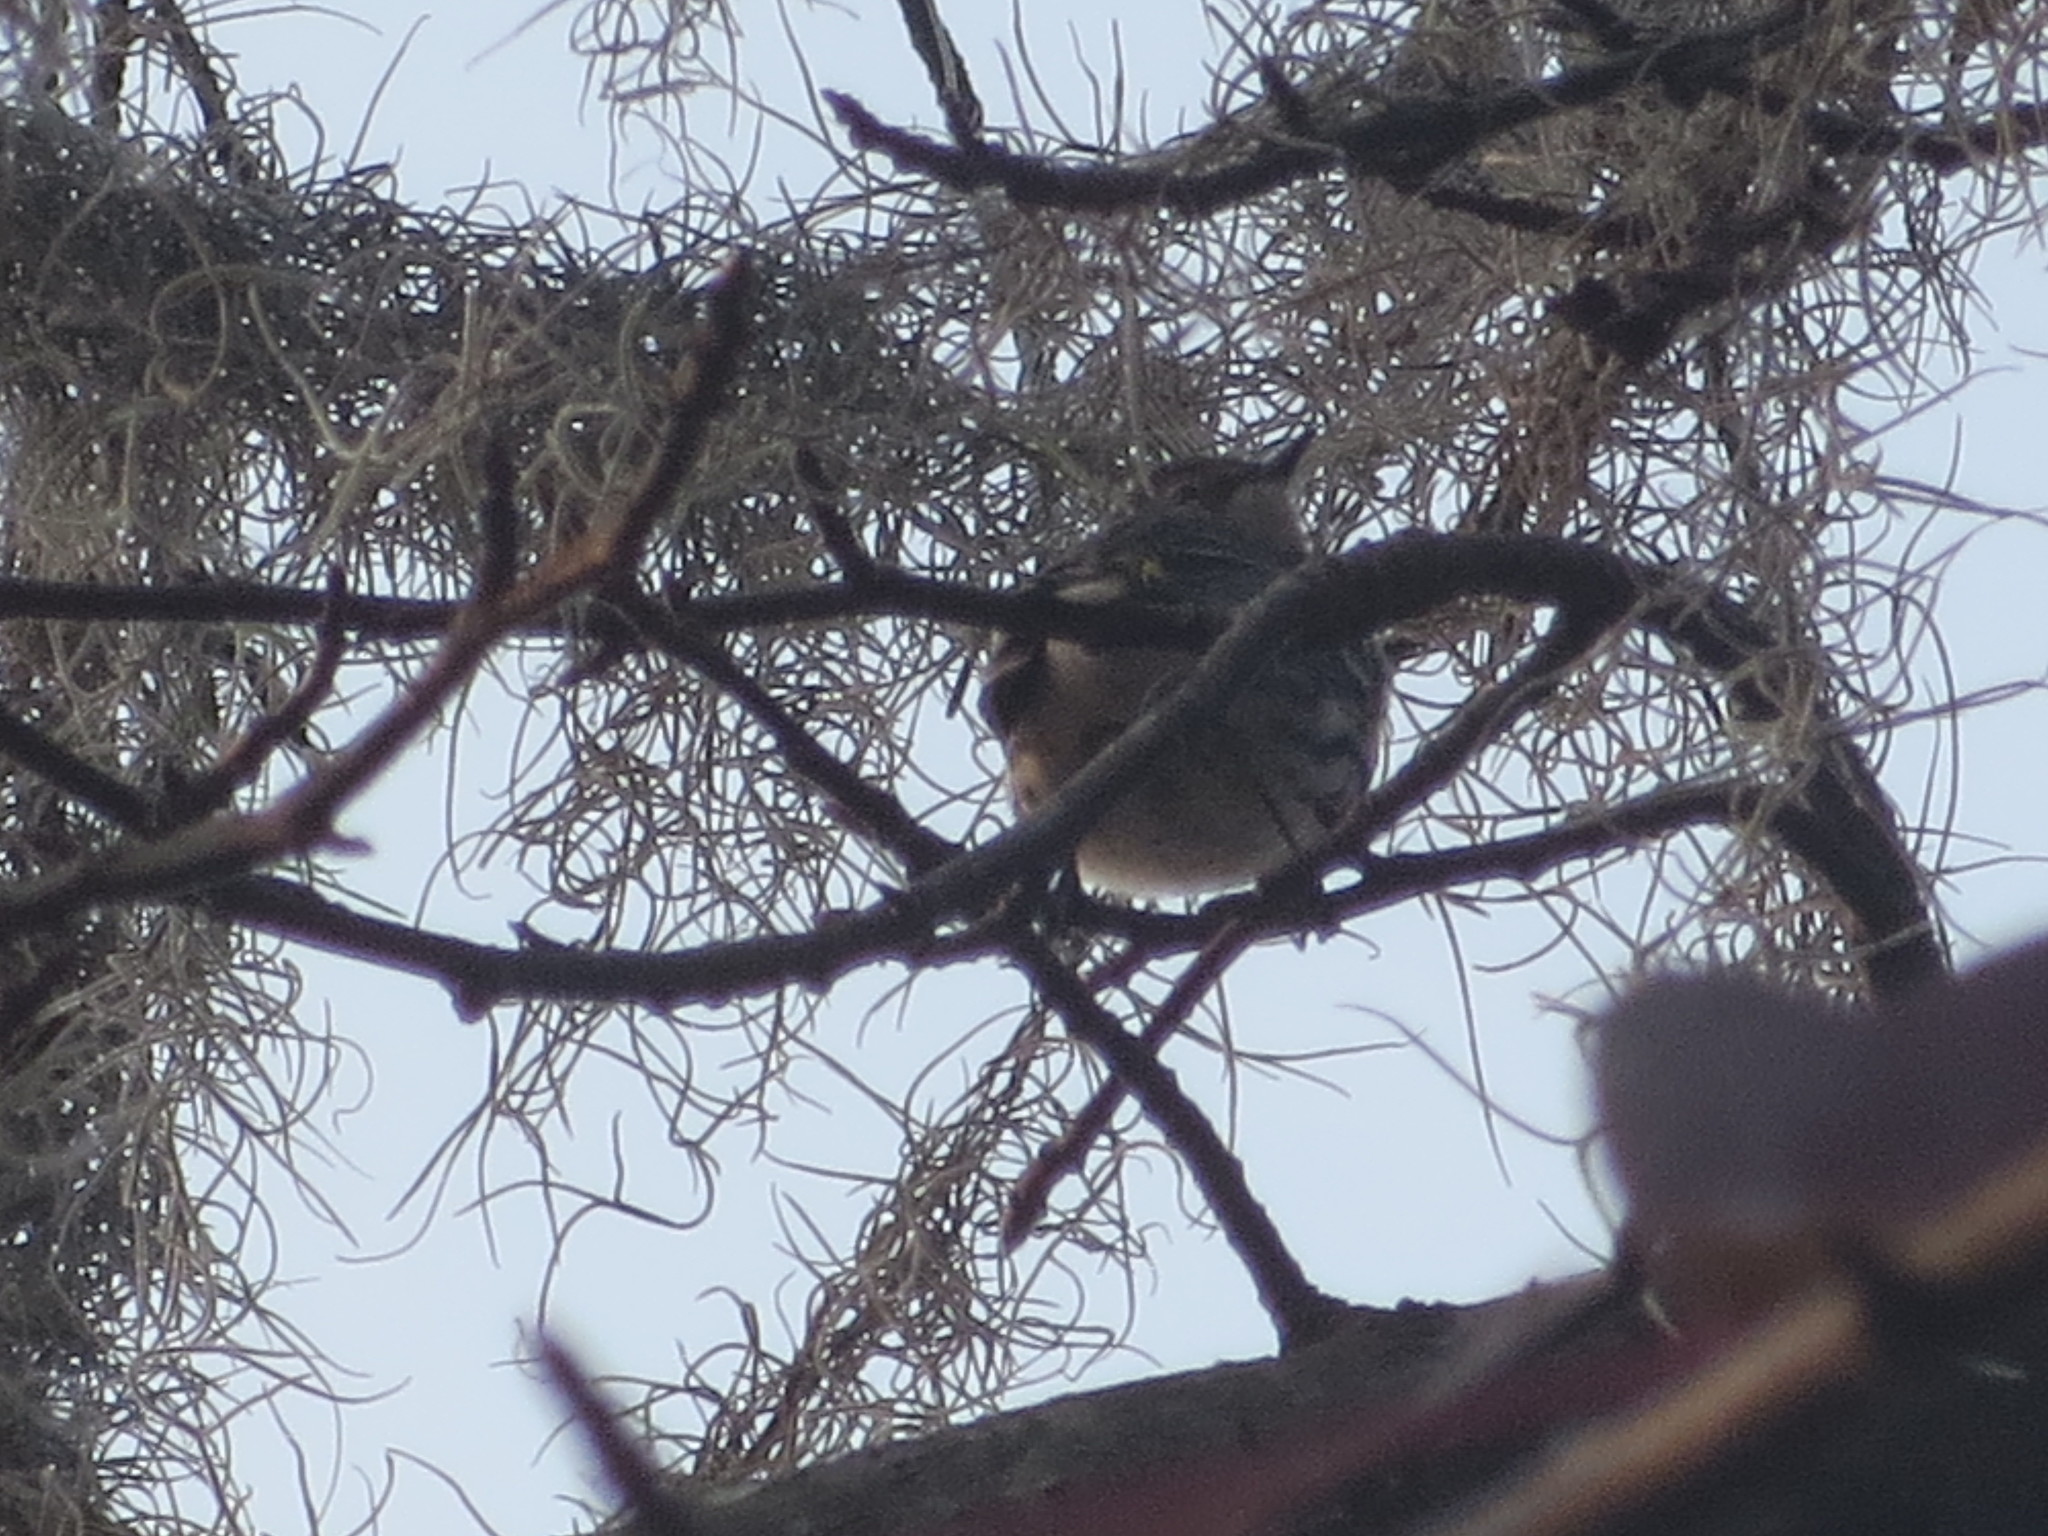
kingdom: Animalia
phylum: Chordata
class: Aves
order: Passeriformes
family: Parulidae
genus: Setophaga
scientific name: Setophaga coronata
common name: Myrtle warbler
